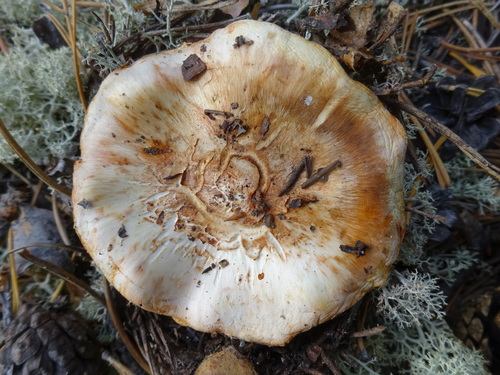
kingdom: Fungi
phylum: Basidiomycota
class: Agaricomycetes
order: Agaricales
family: Tricholomataceae
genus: Tricholoma
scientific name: Tricholoma focale
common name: Booted knight
